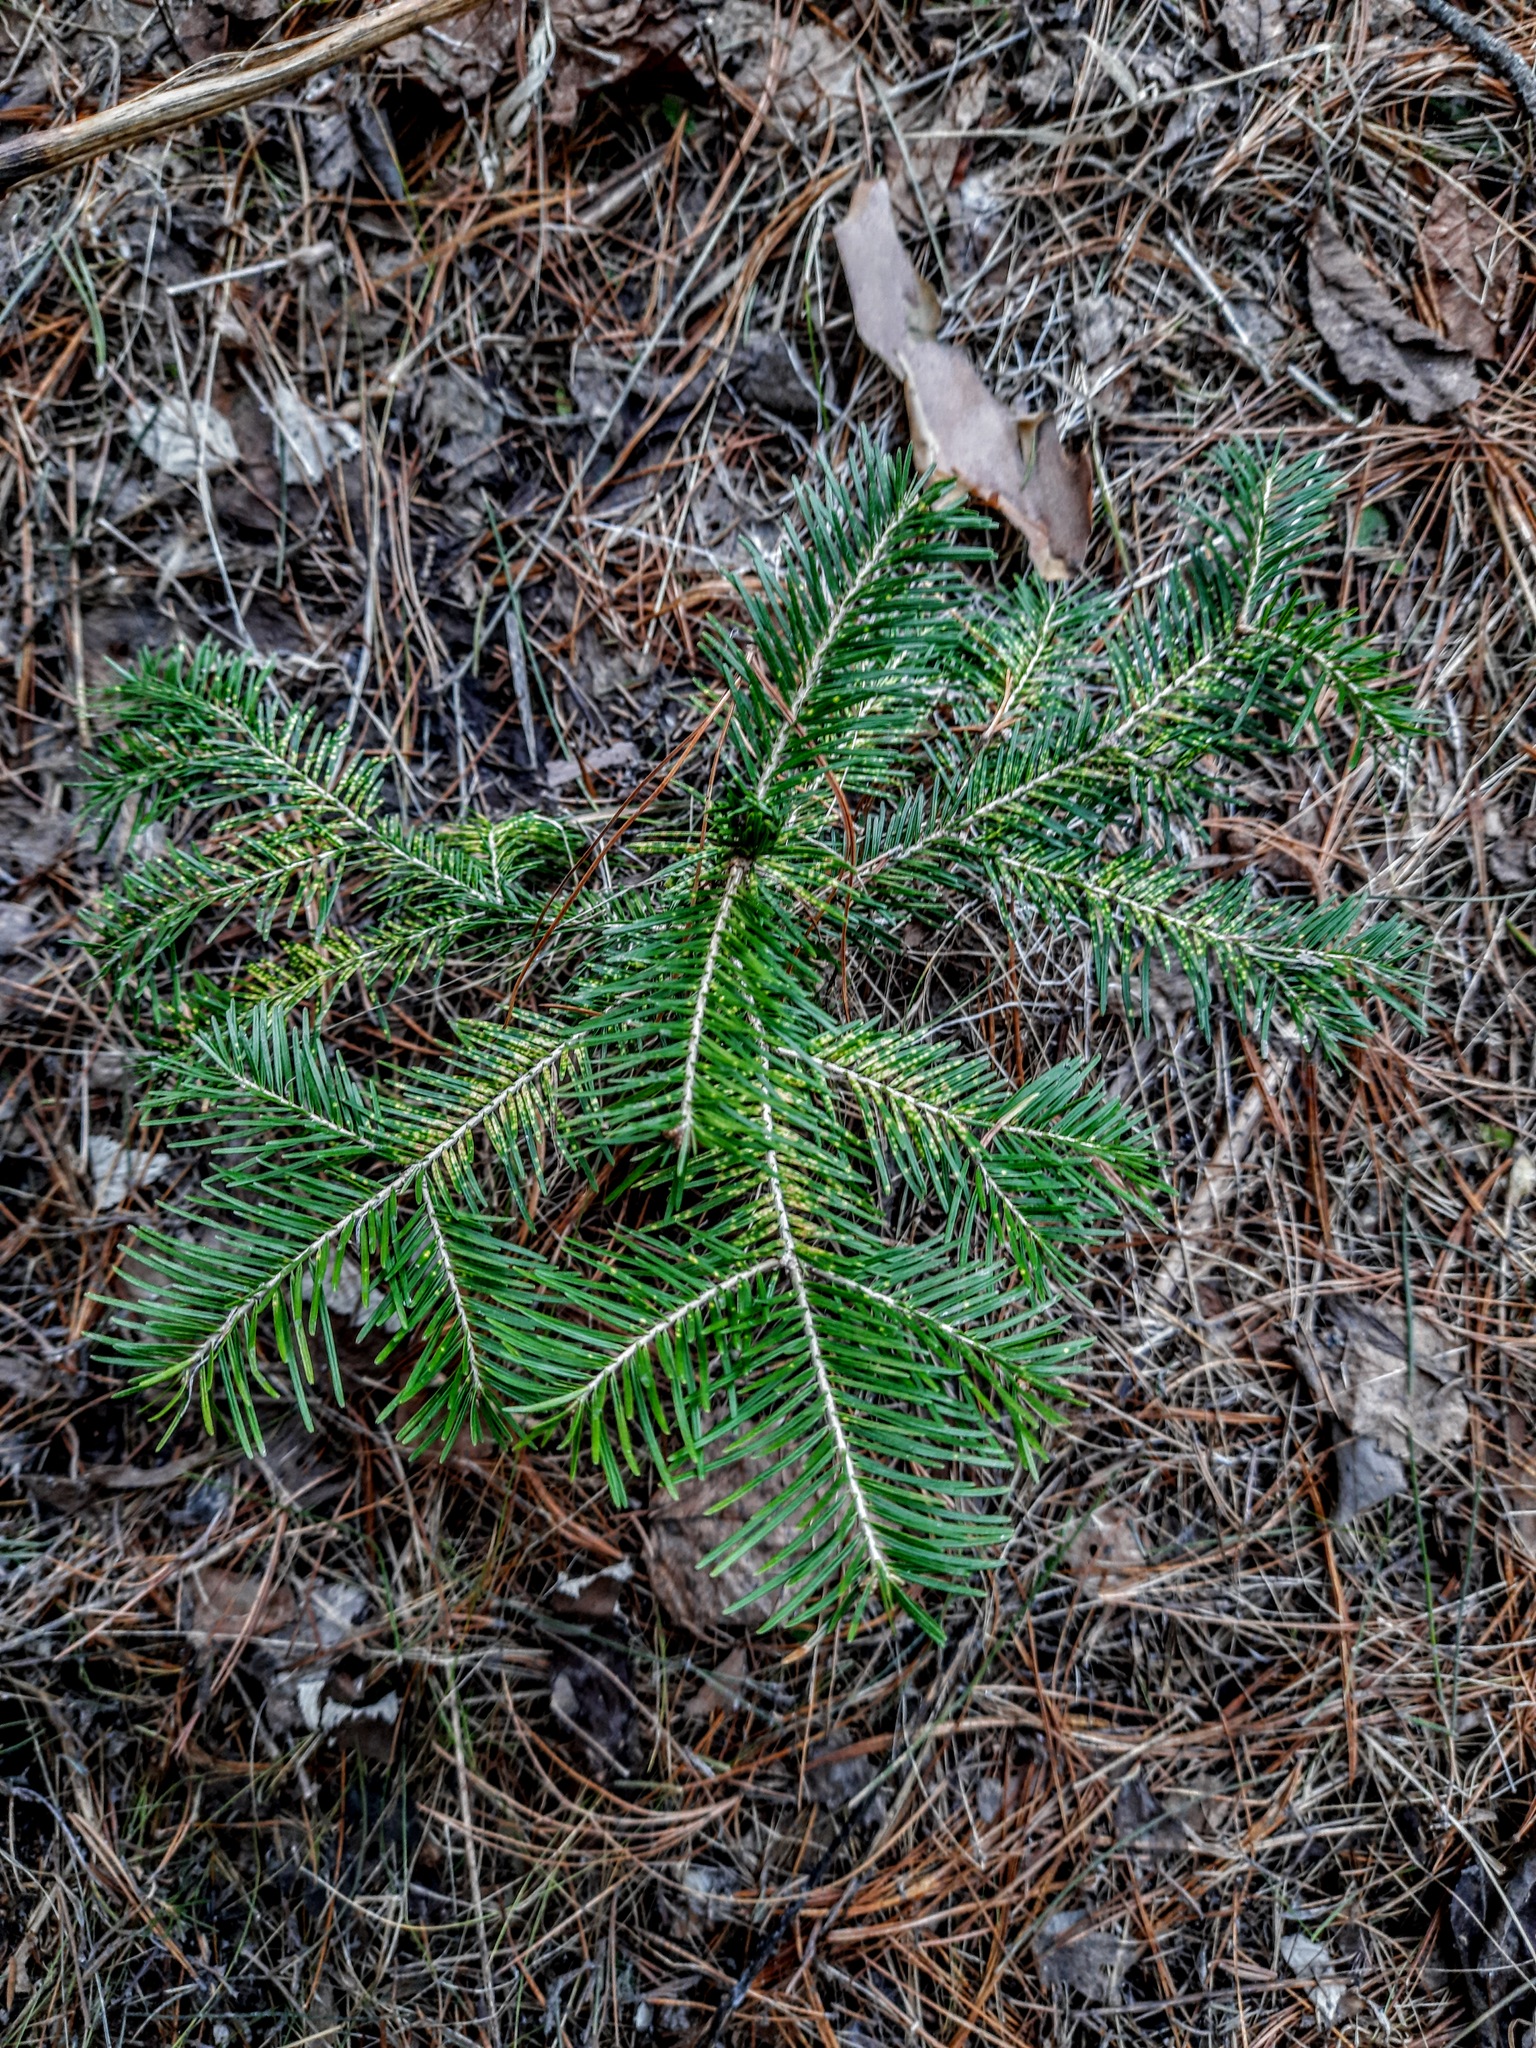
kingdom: Plantae
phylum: Tracheophyta
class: Pinopsida
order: Pinales
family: Pinaceae
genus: Abies
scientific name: Abies sibirica
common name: Siberian fir
